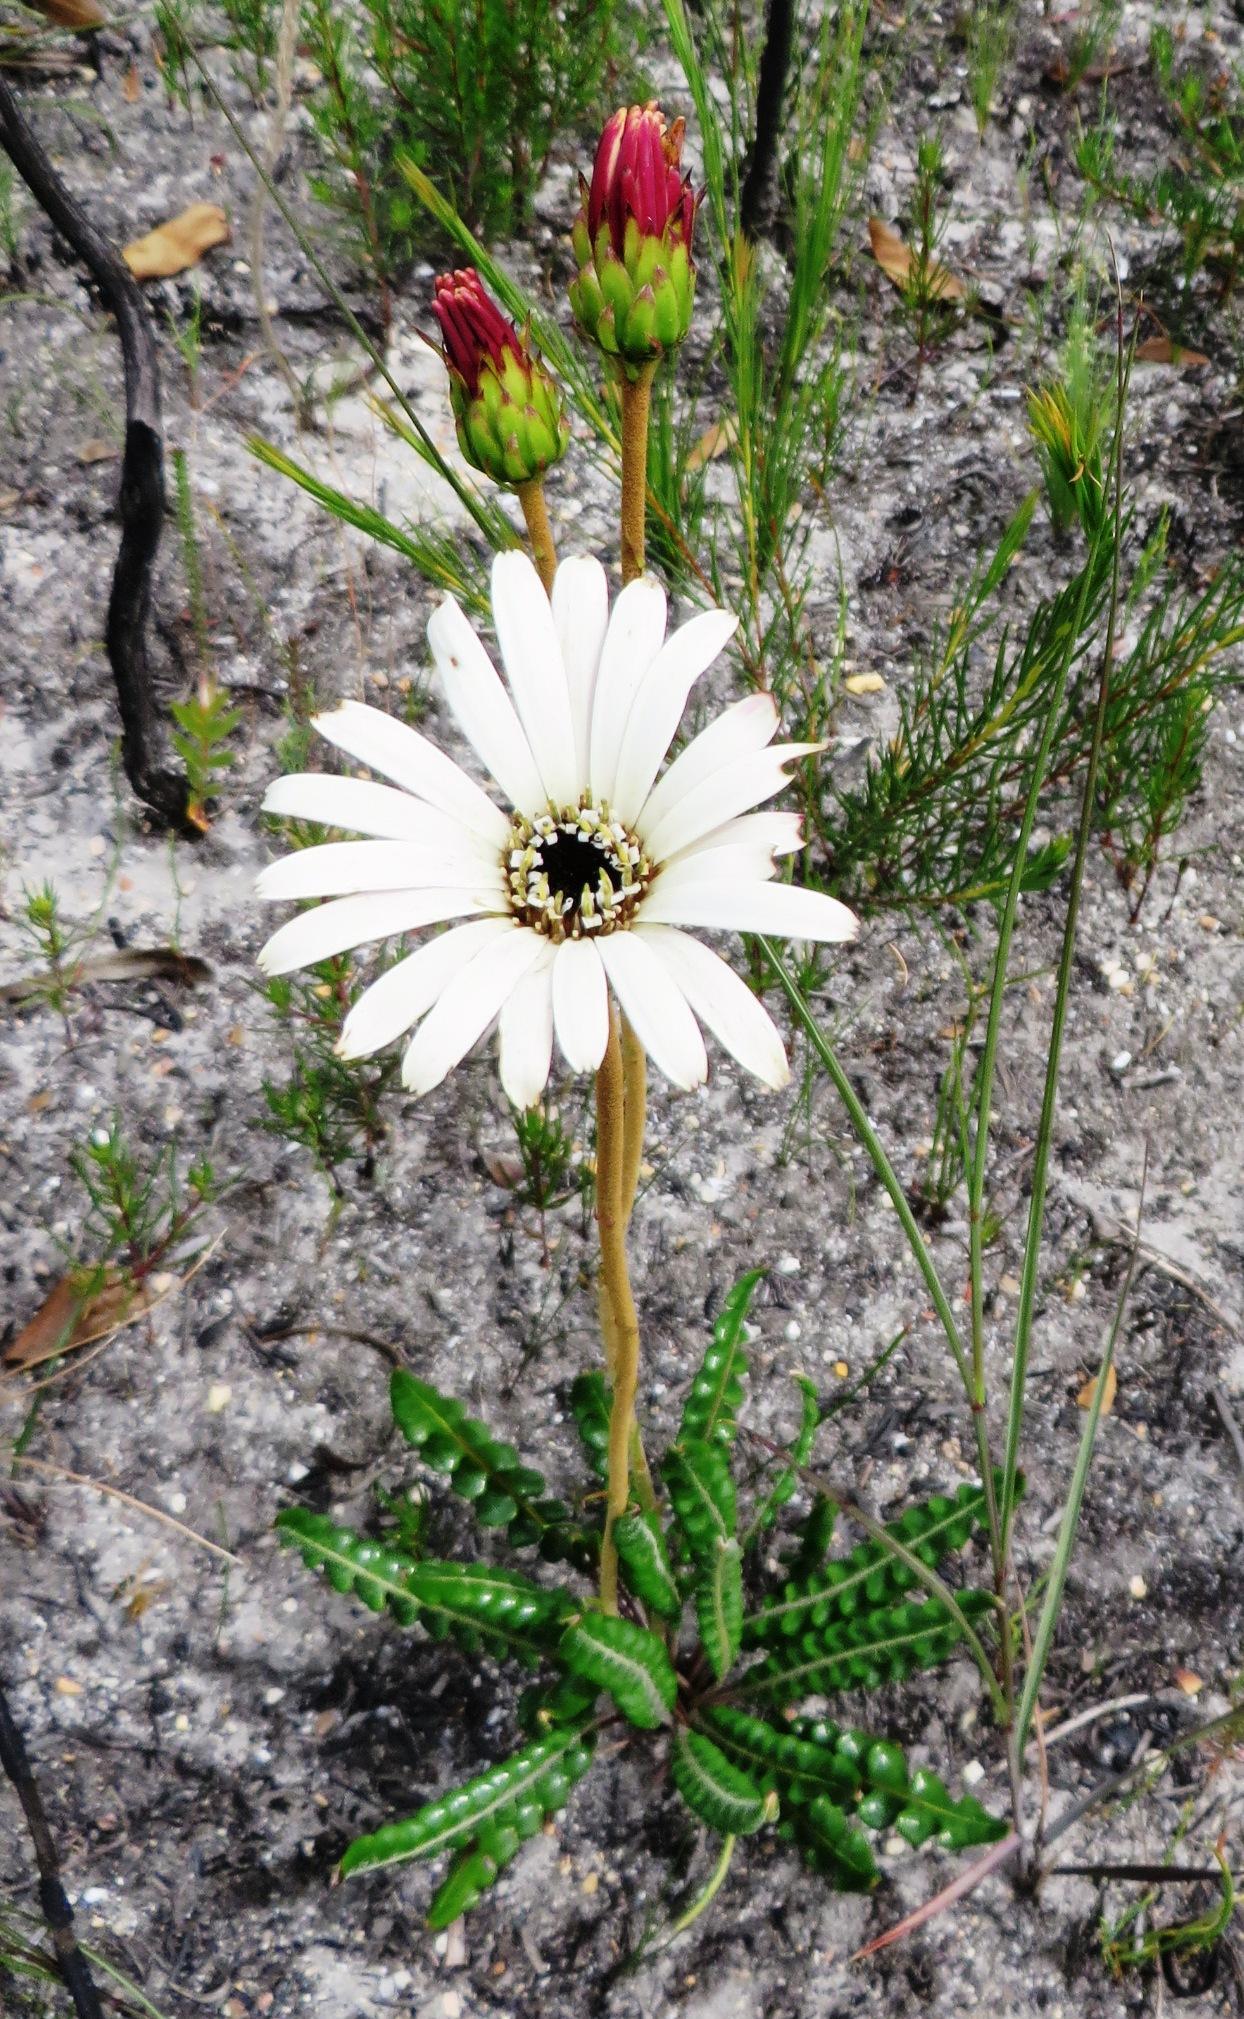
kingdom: Plantae
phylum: Tracheophyta
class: Magnoliopsida
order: Asterales
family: Asteraceae
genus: Gerbera
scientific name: Gerbera linnaei
